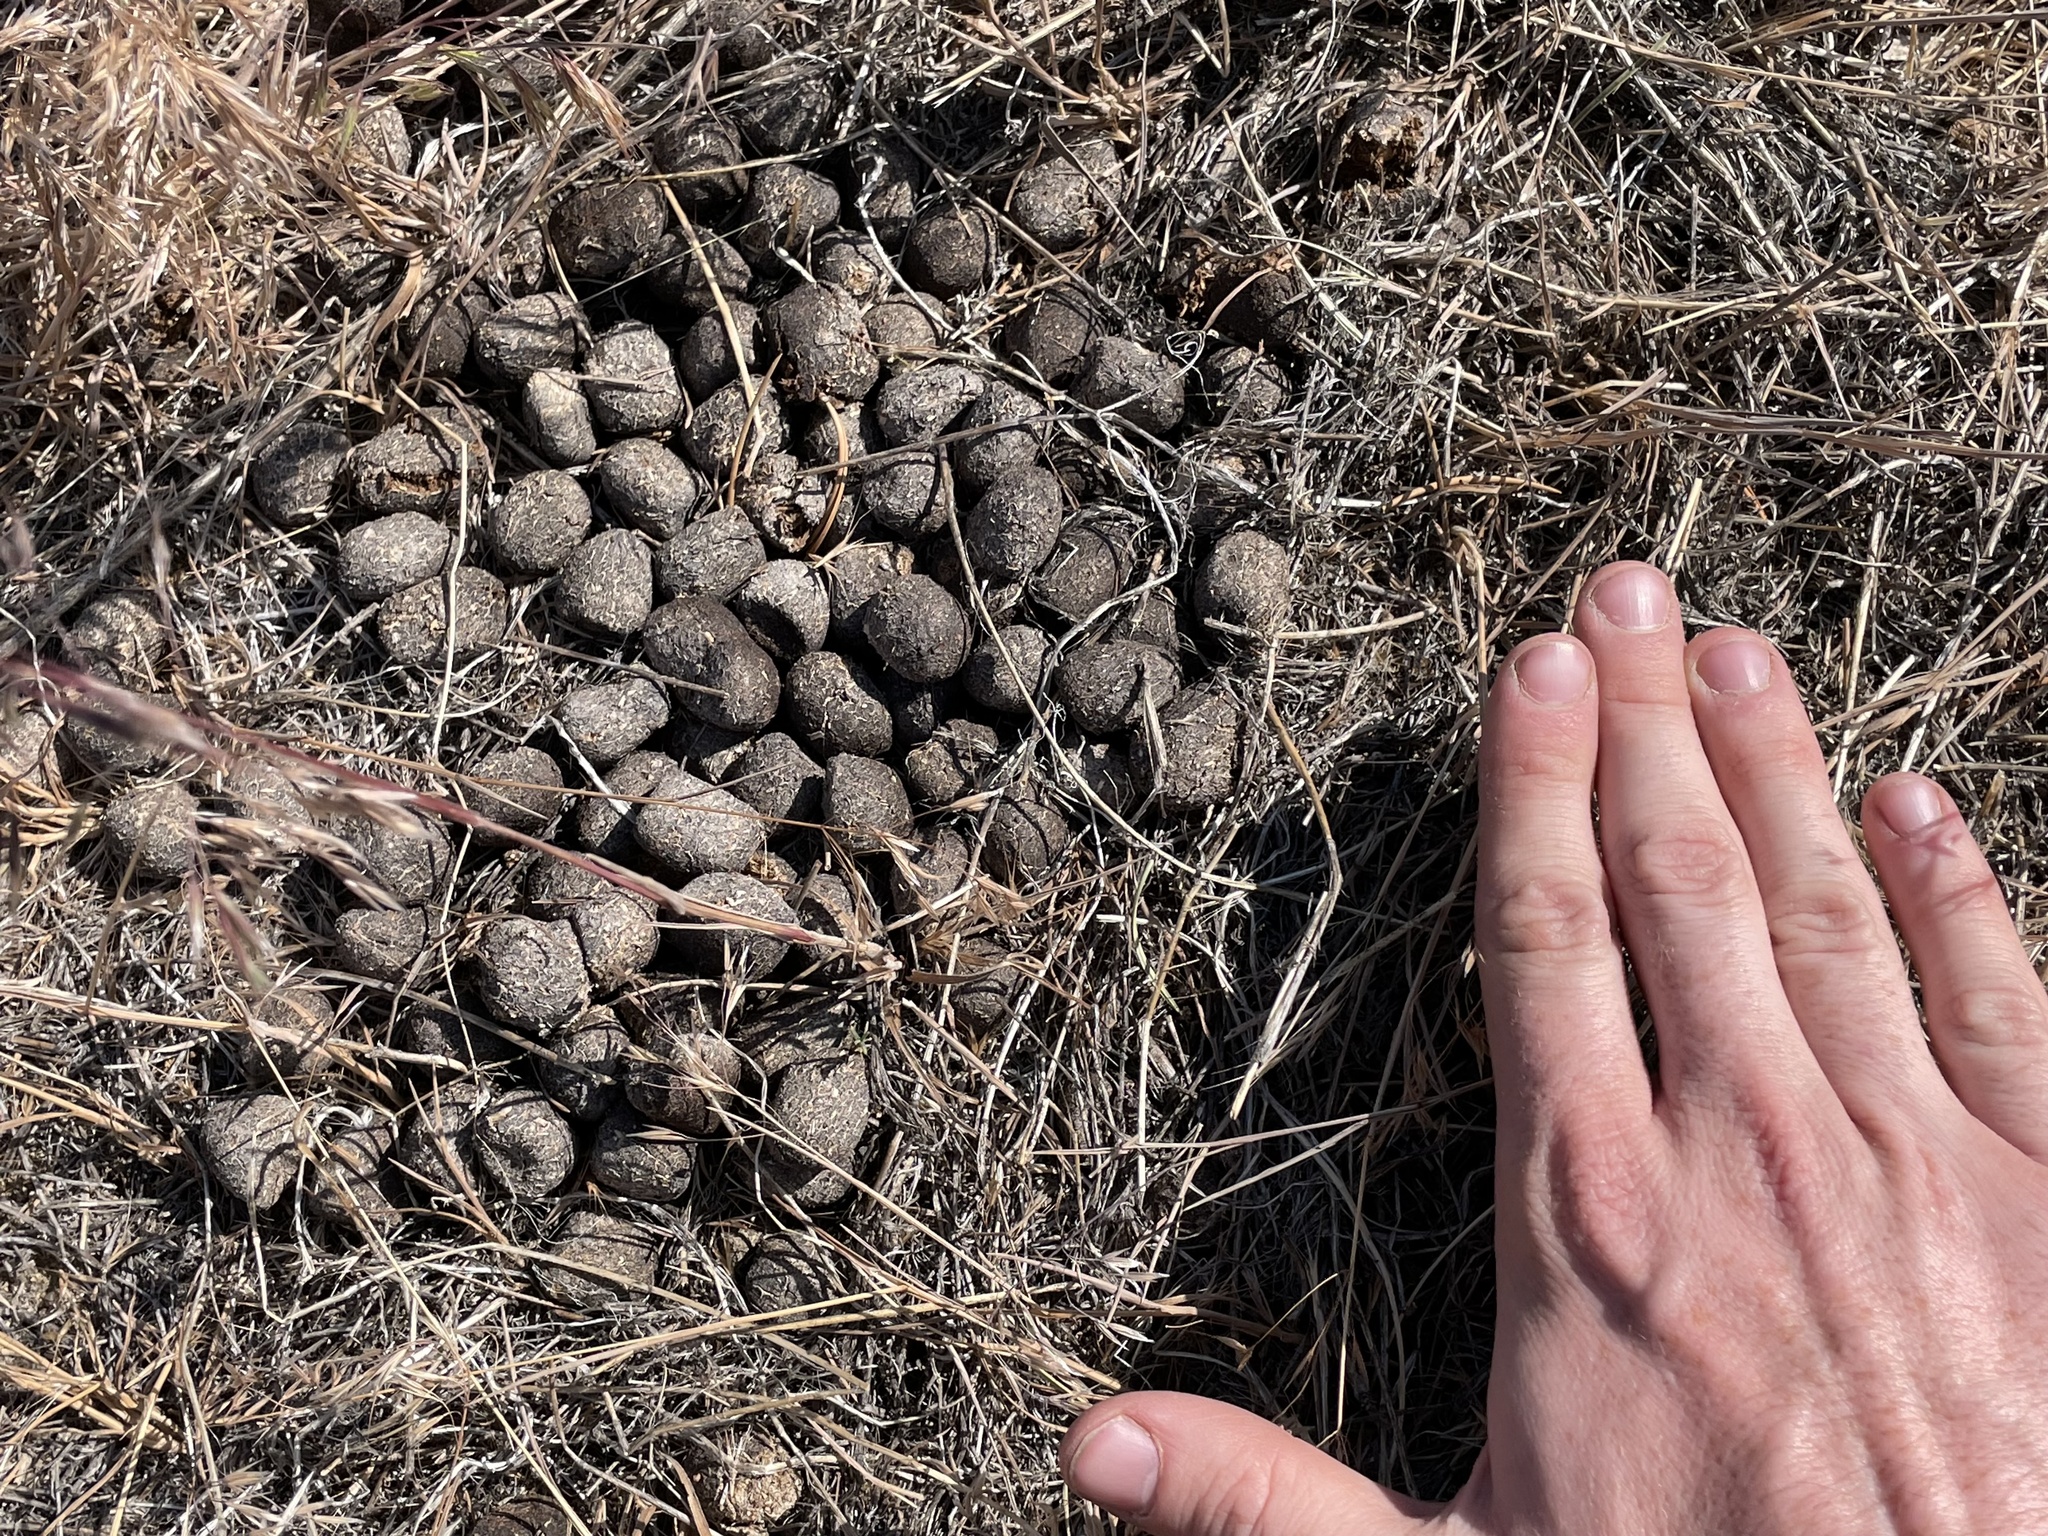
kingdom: Animalia
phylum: Chordata
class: Mammalia
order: Artiodactyla
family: Cervidae
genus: Cervus
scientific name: Cervus elaphus
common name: Red deer
